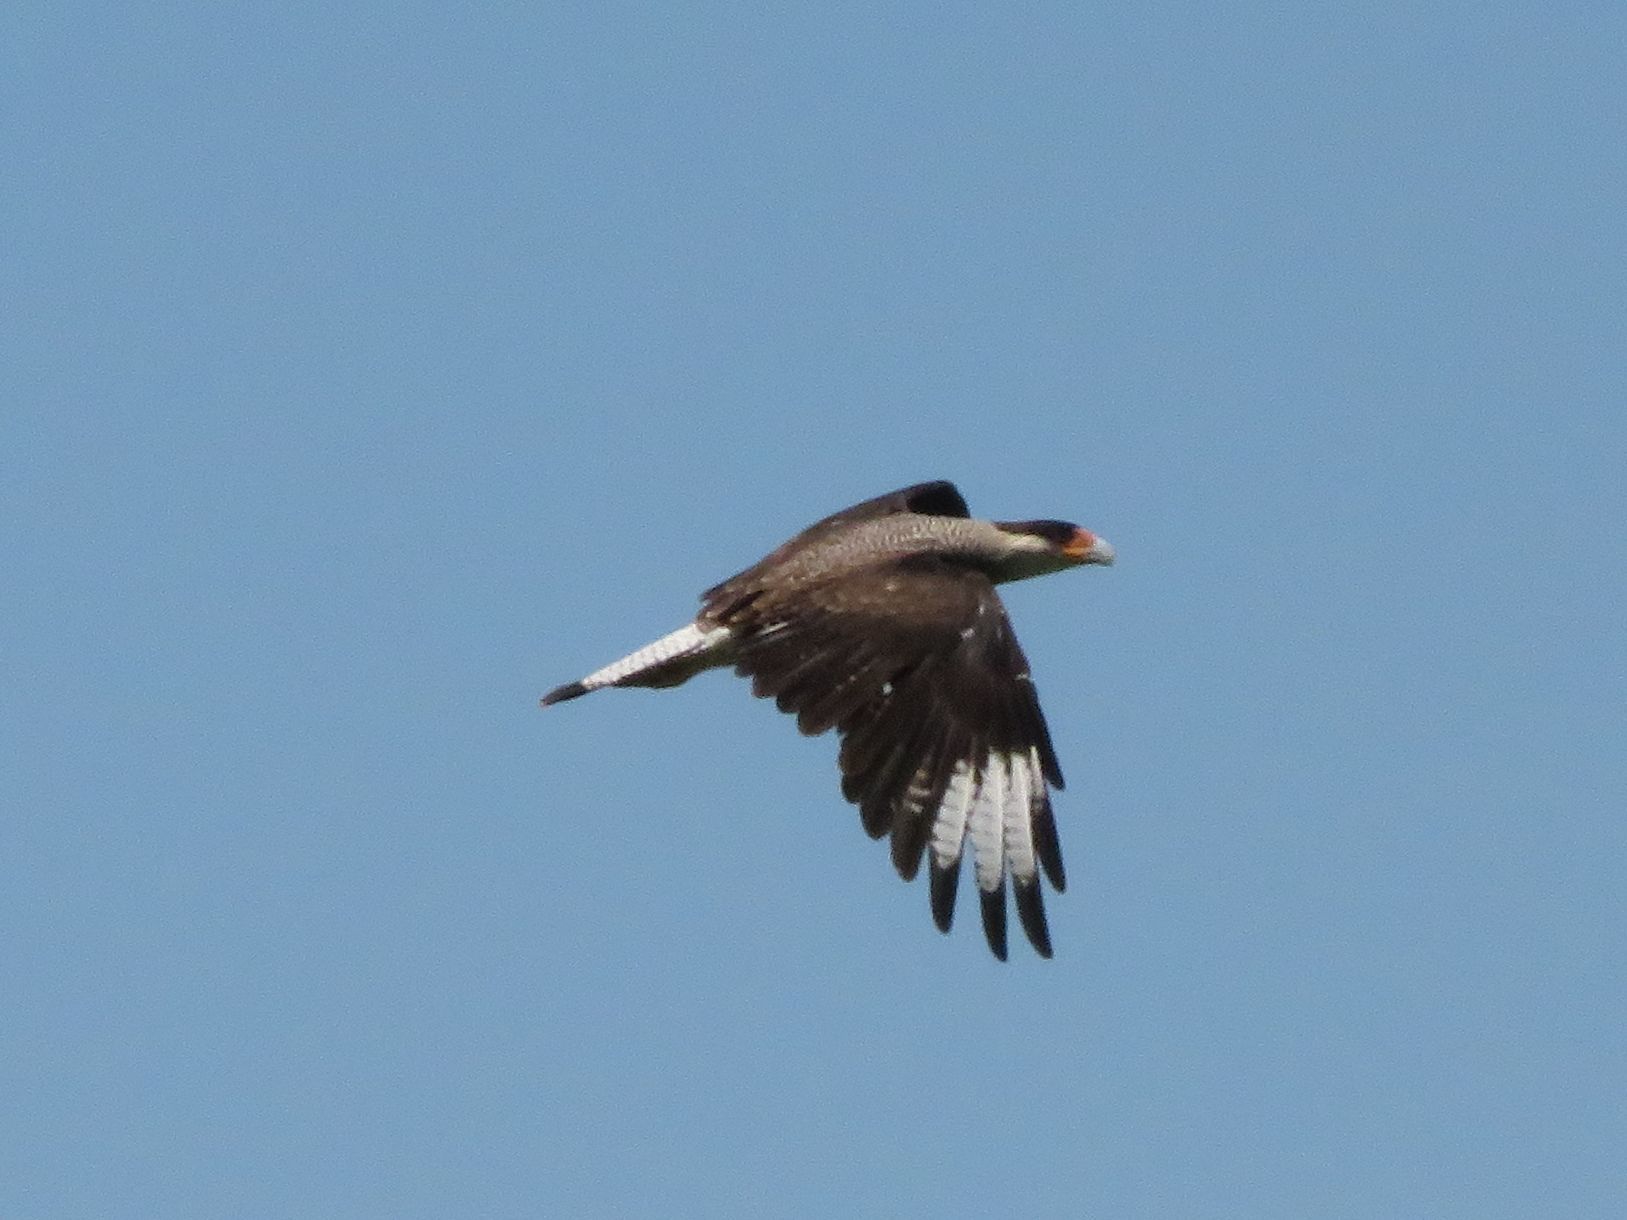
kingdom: Animalia
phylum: Chordata
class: Aves
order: Falconiformes
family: Falconidae
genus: Caracara
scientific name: Caracara plancus
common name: Southern caracara
